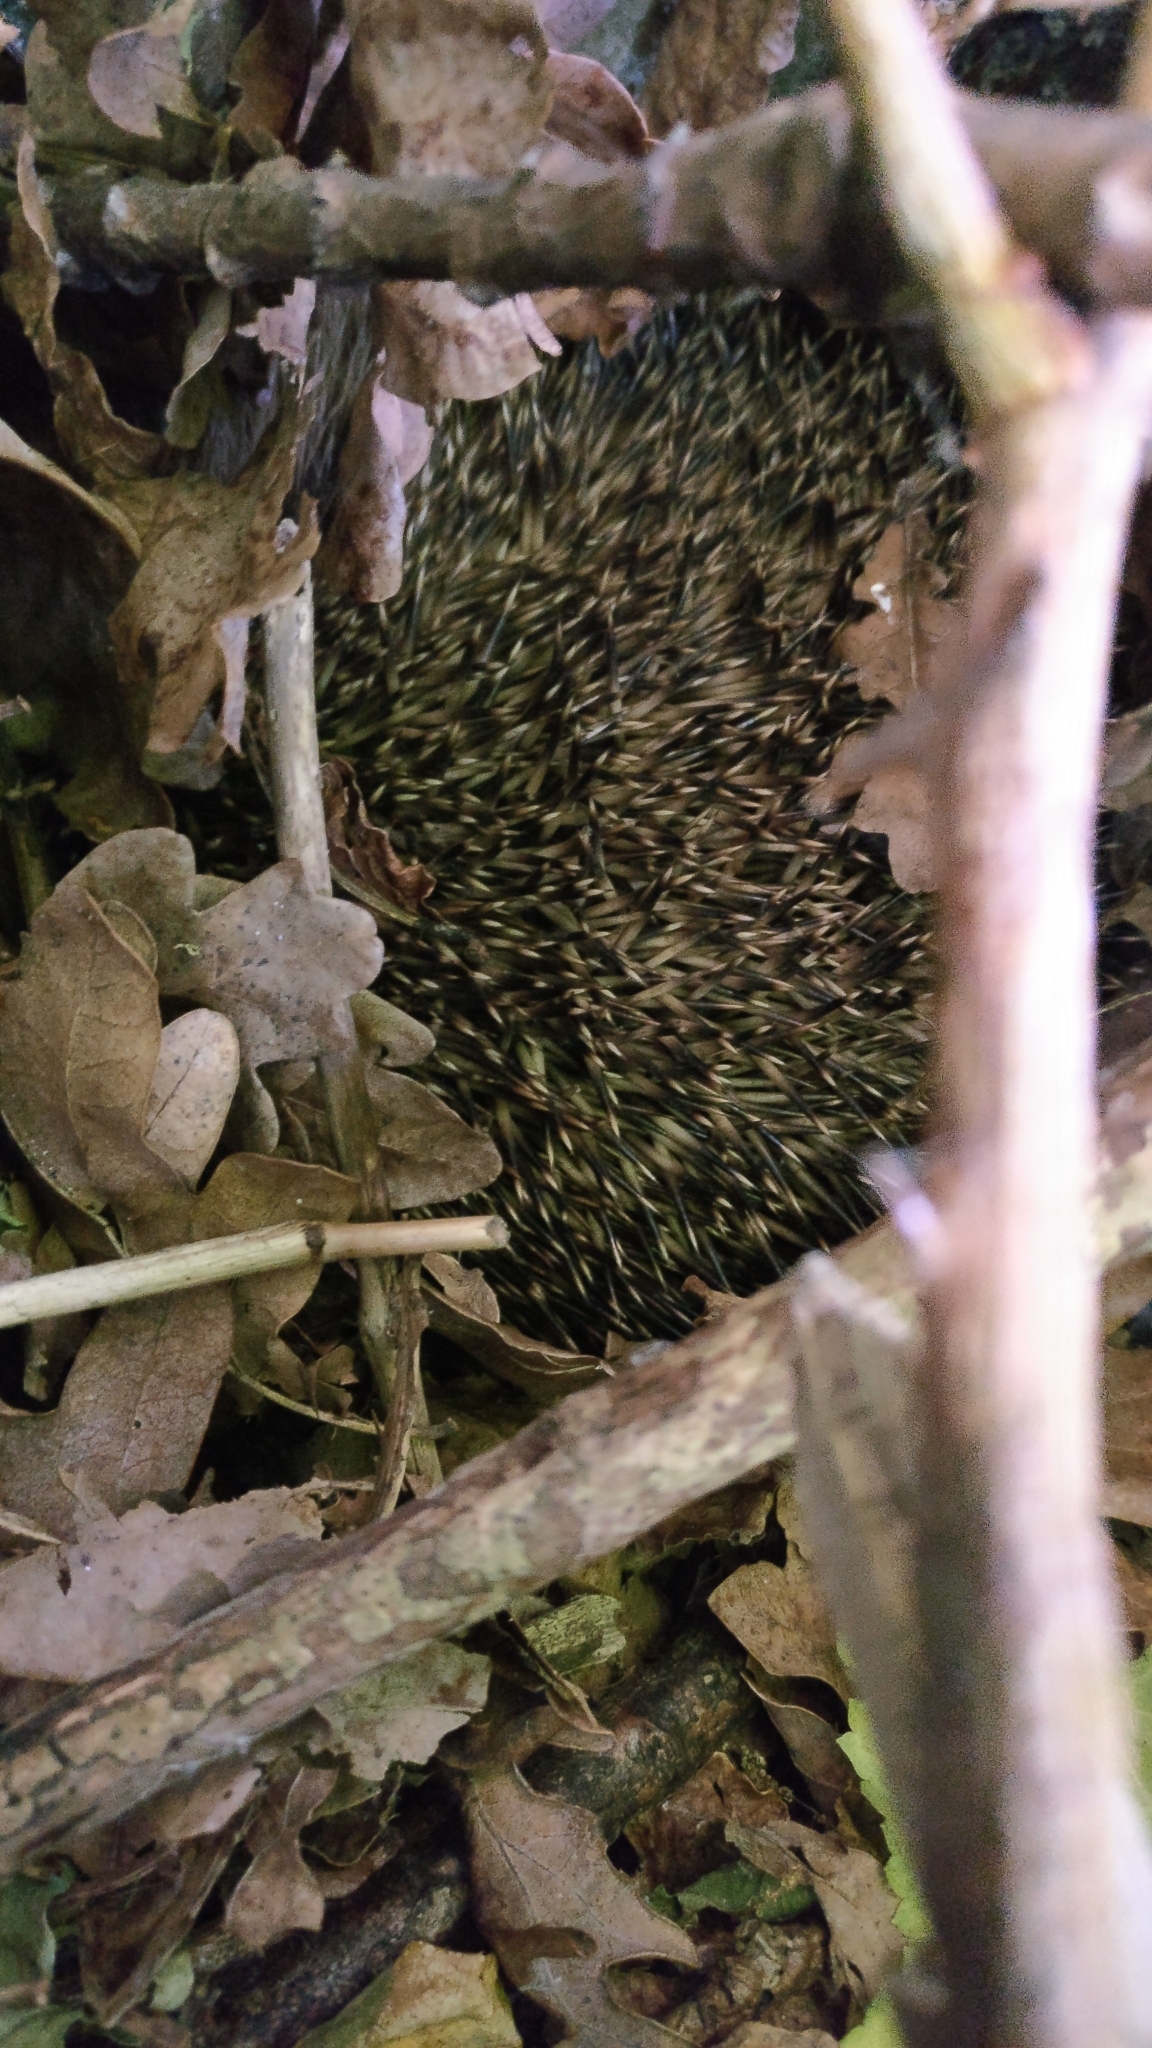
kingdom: Animalia
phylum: Chordata
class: Mammalia
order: Erinaceomorpha
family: Erinaceidae
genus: Erinaceus
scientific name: Erinaceus europaeus
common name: West european hedgehog
